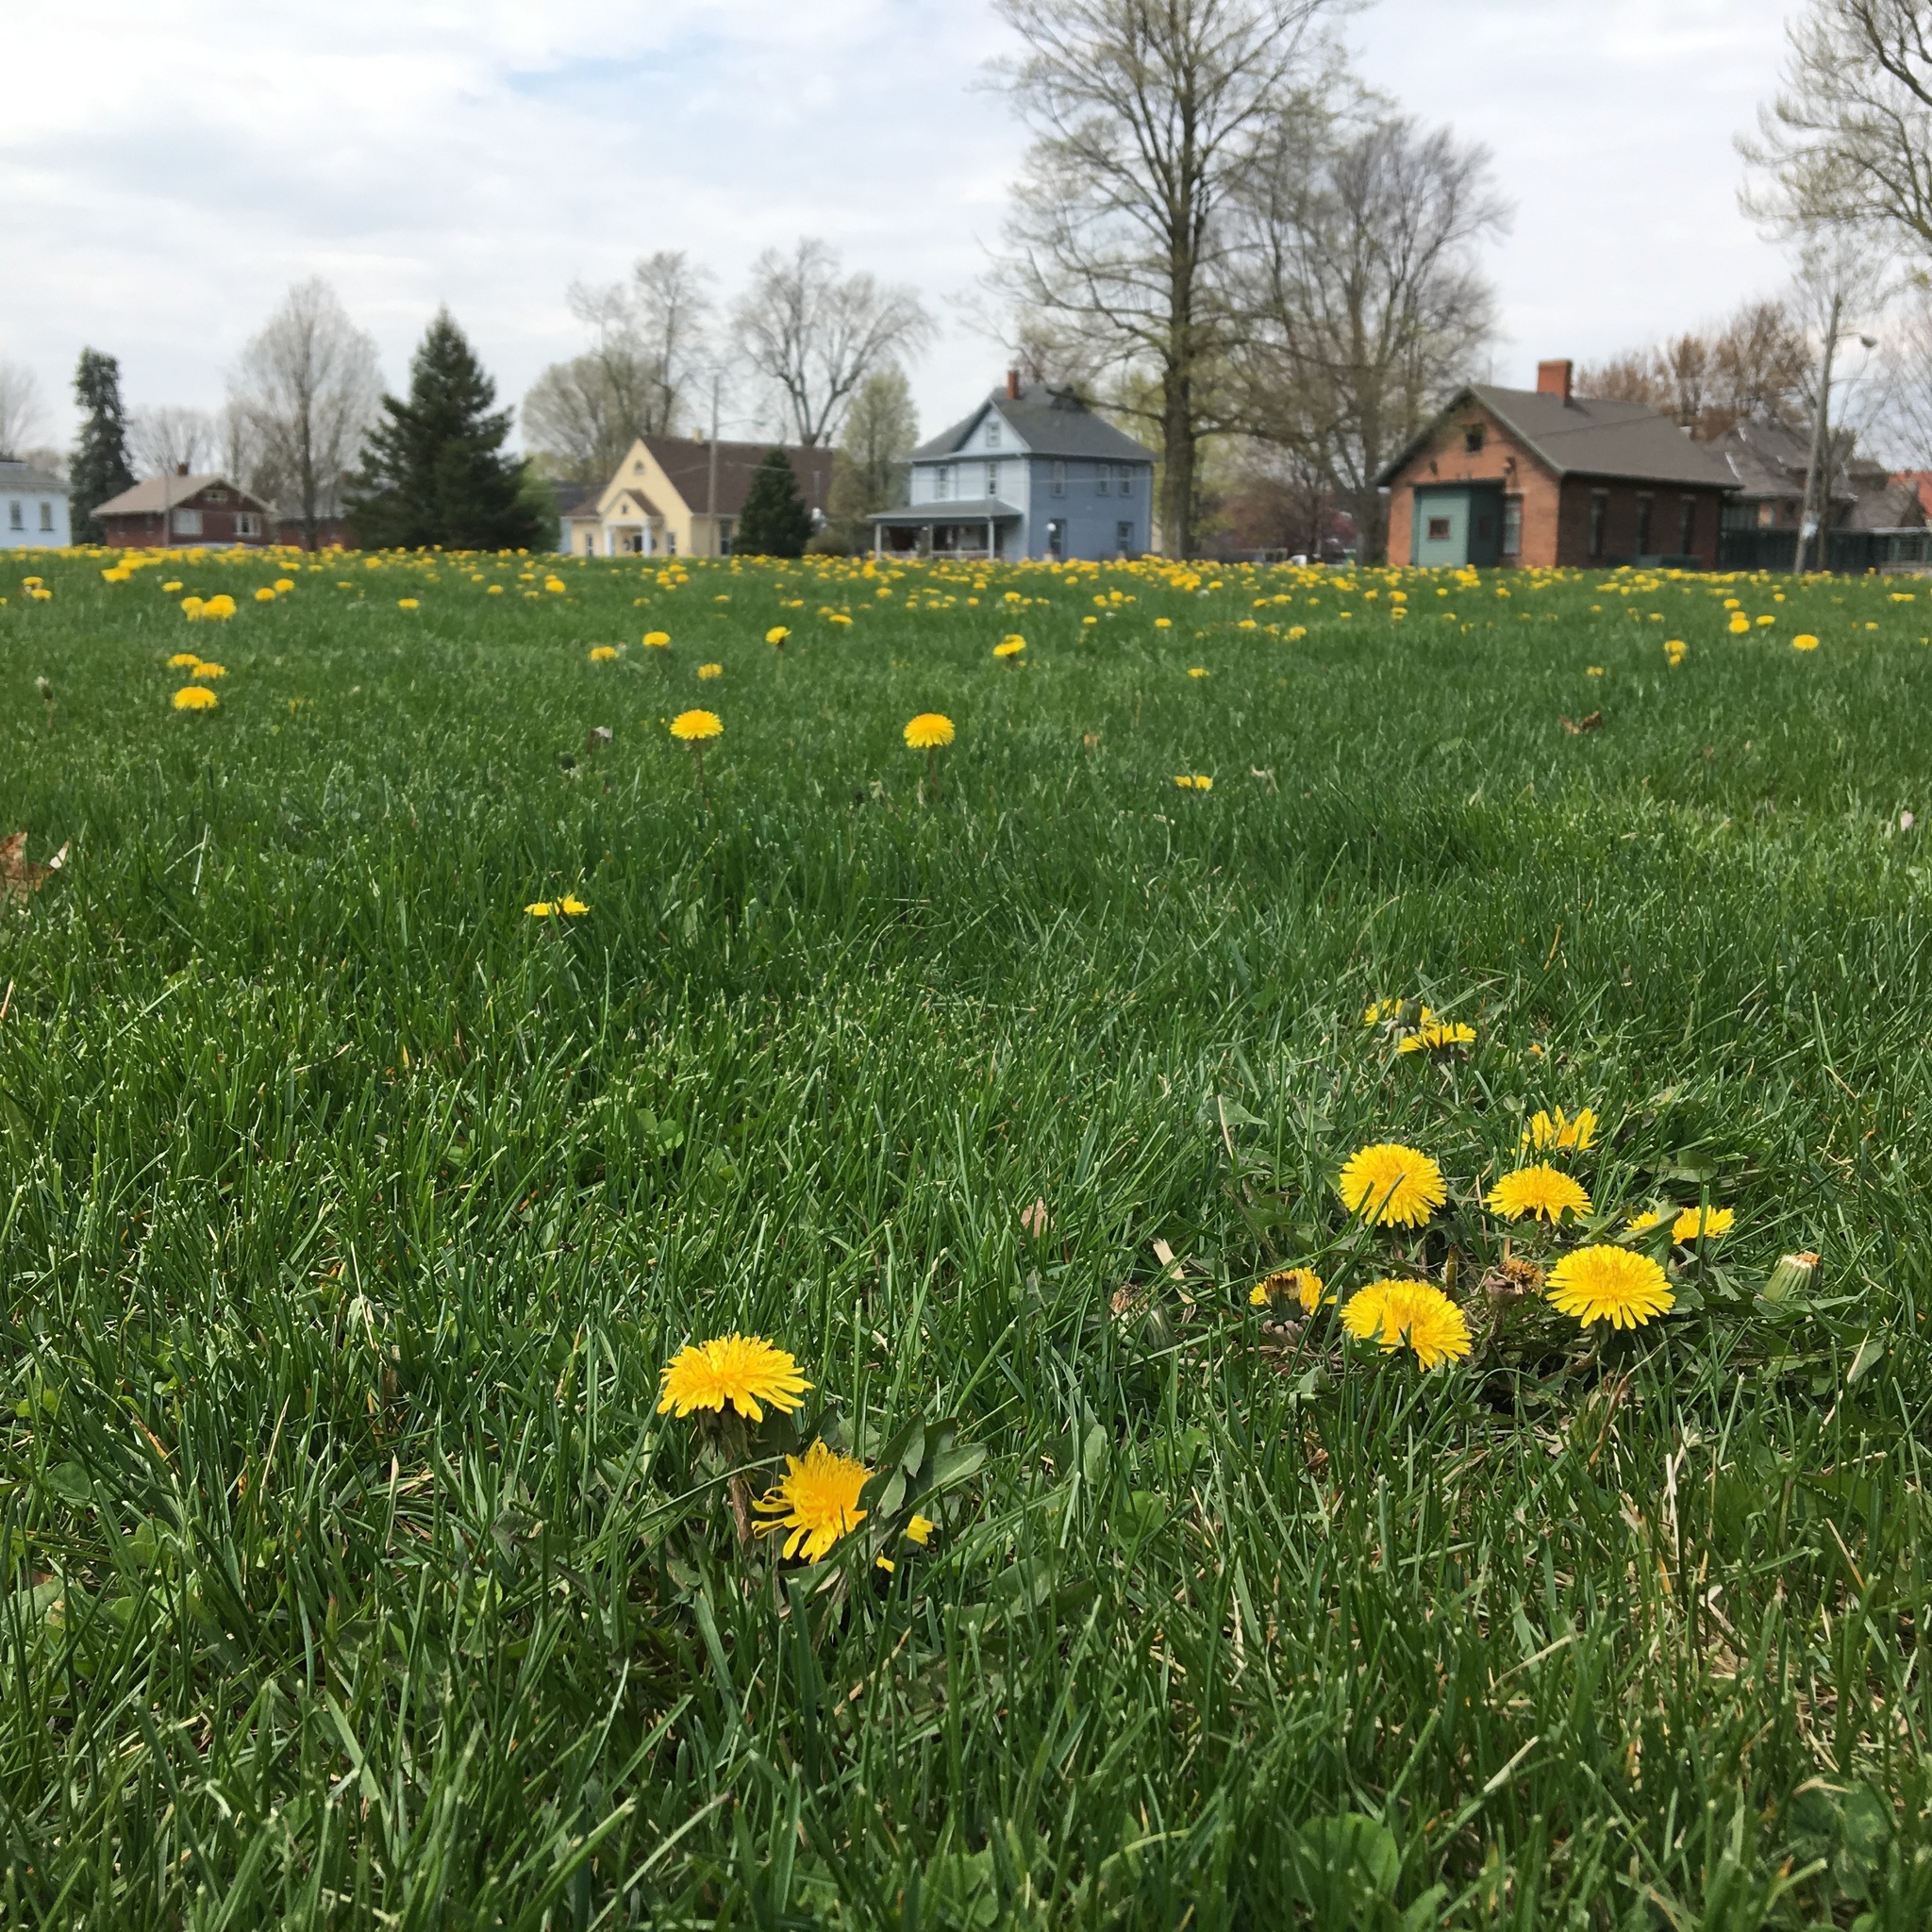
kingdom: Plantae
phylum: Tracheophyta
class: Magnoliopsida
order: Asterales
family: Asteraceae
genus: Taraxacum
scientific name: Taraxacum
